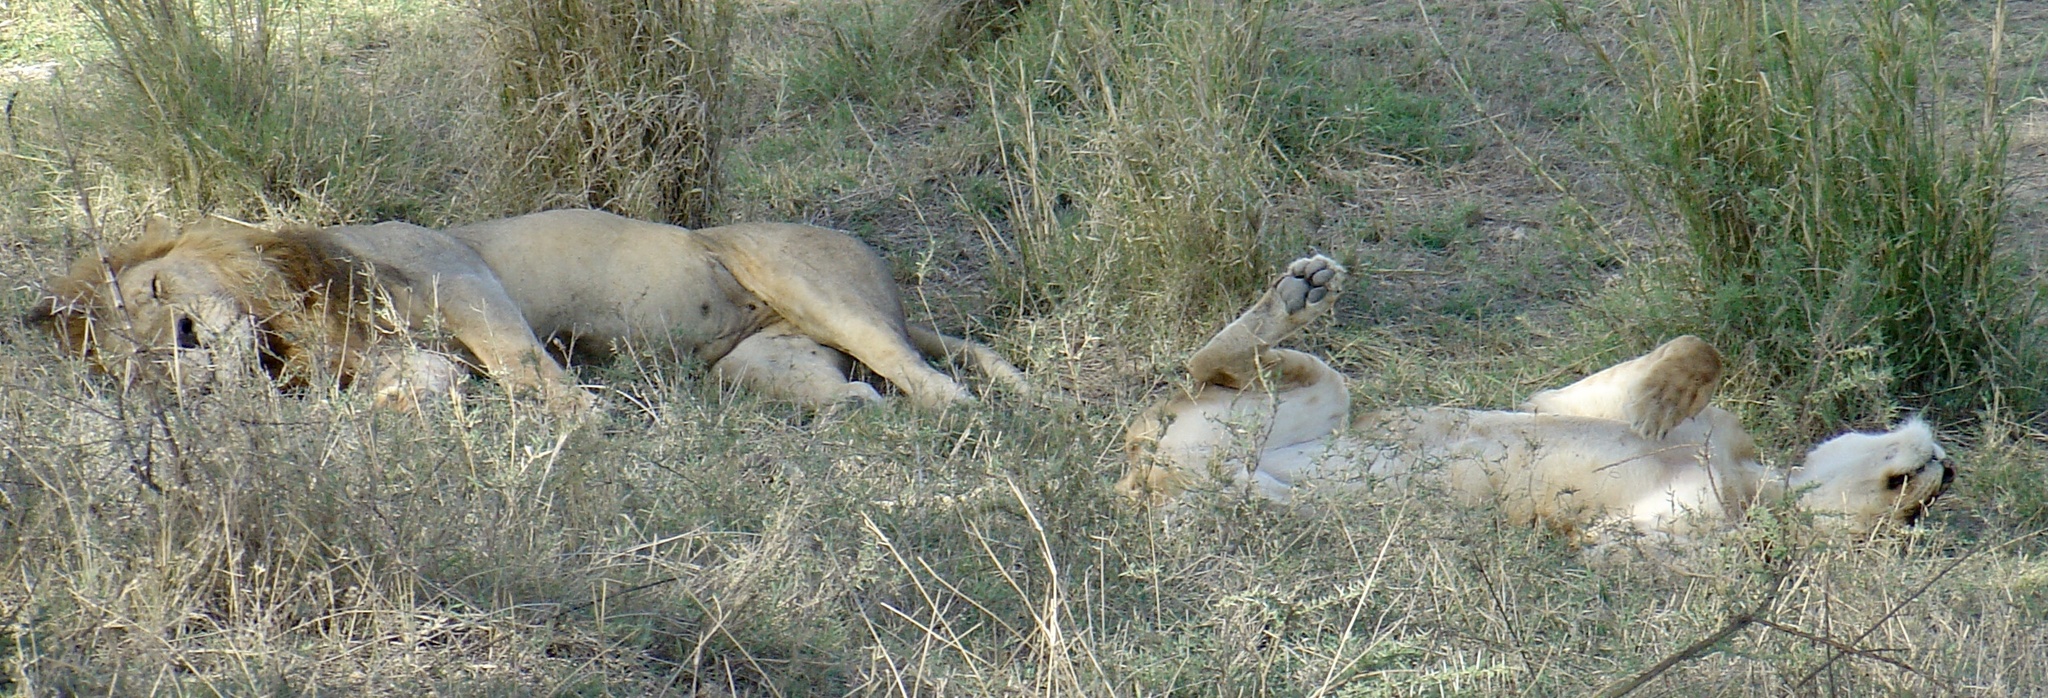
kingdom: Animalia
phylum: Chordata
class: Mammalia
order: Carnivora
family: Felidae
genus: Panthera
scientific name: Panthera leo
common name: Lion
